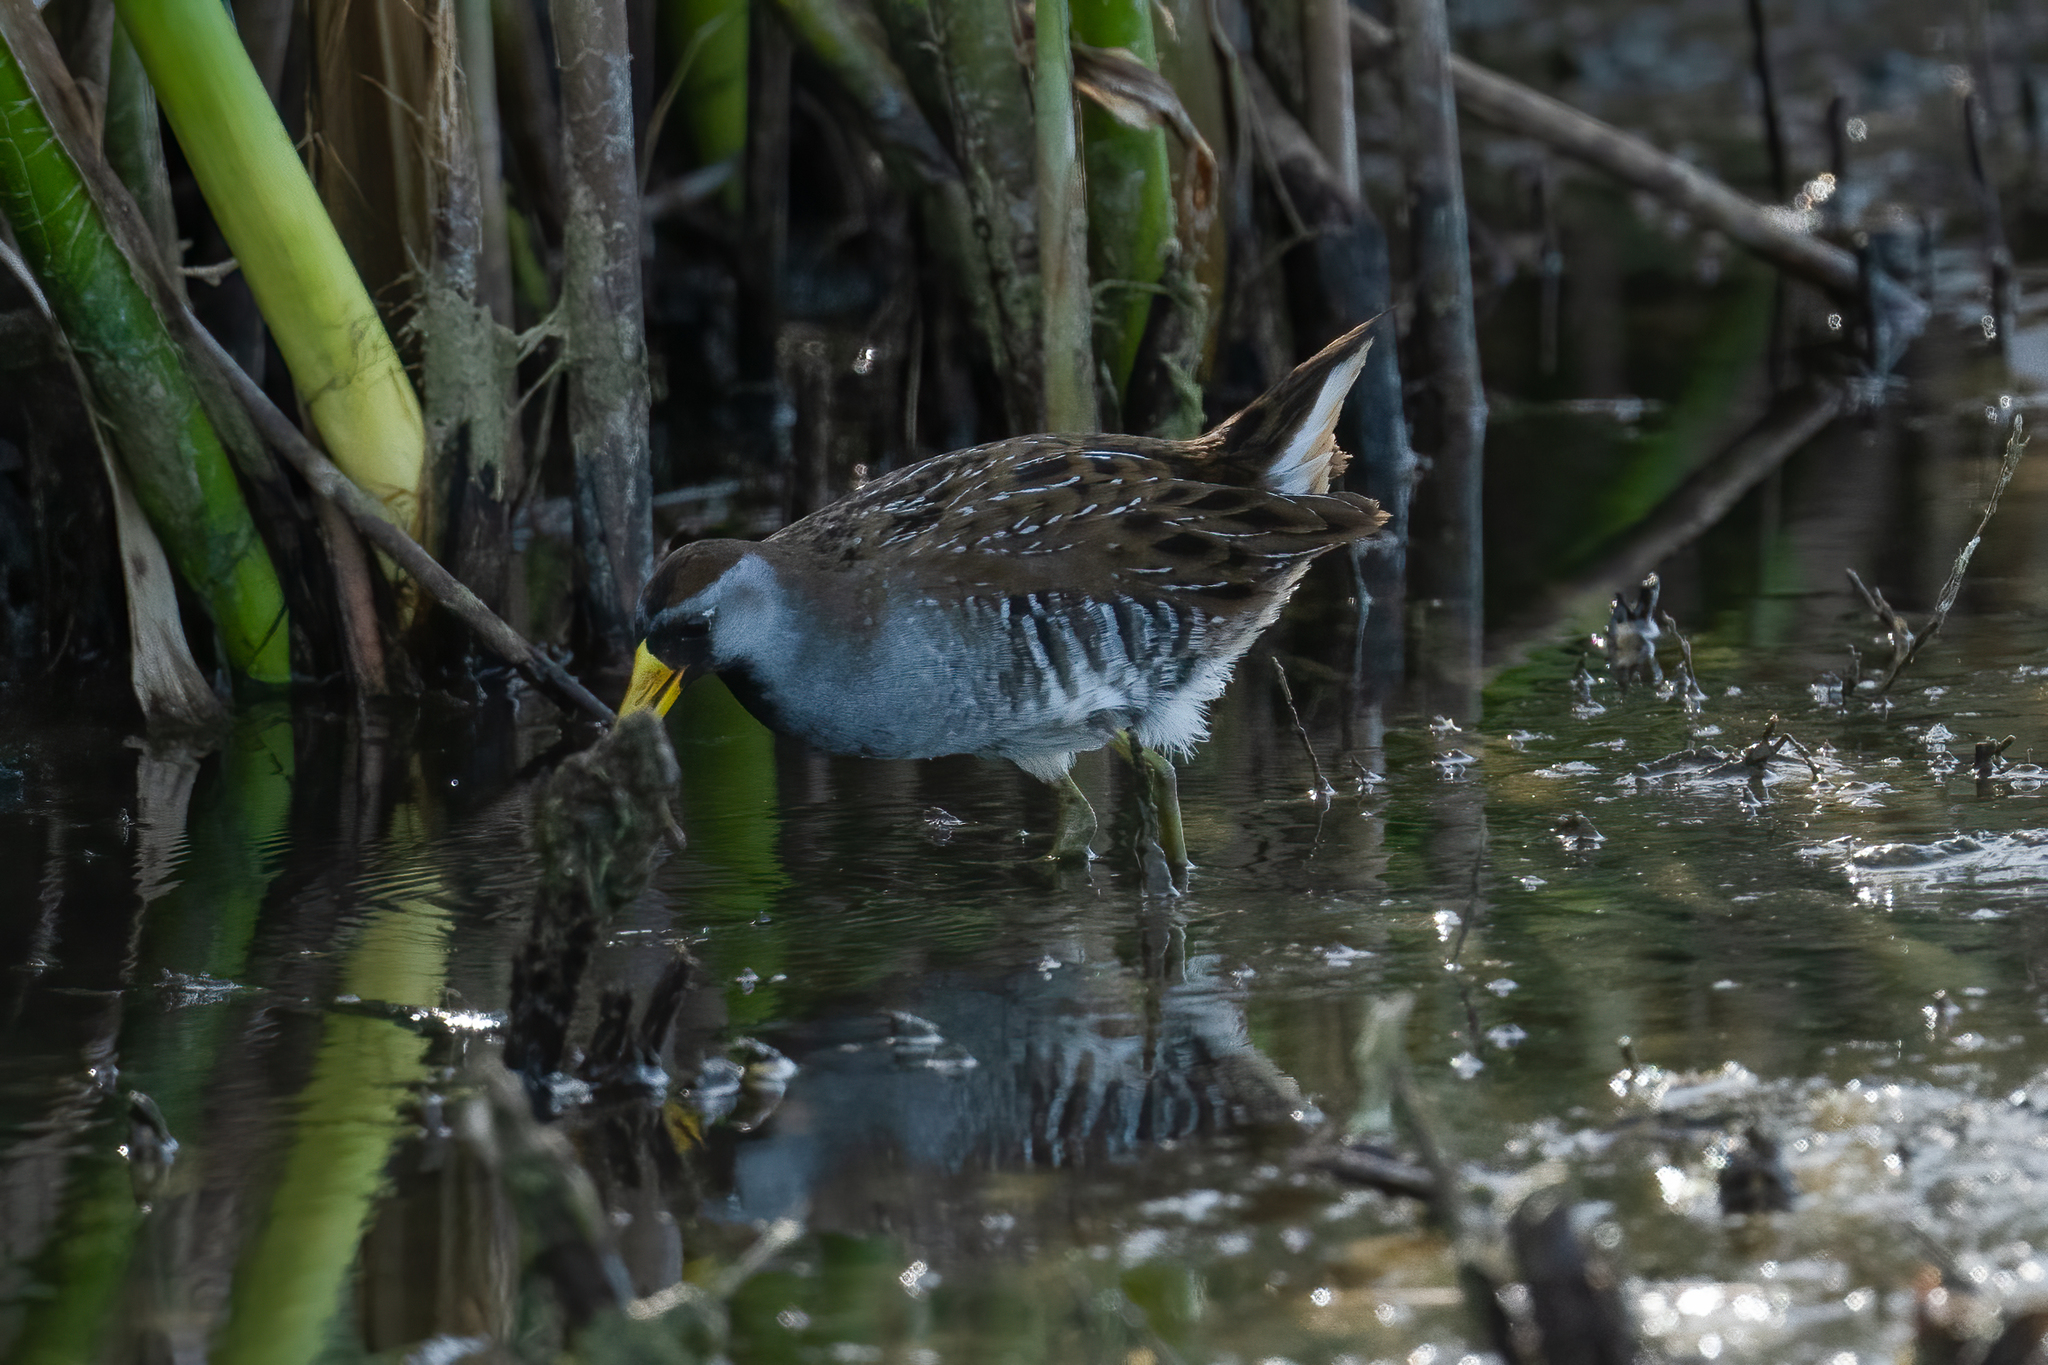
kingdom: Animalia
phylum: Chordata
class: Aves
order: Gruiformes
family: Rallidae
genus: Porzana
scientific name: Porzana carolina
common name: Sora
